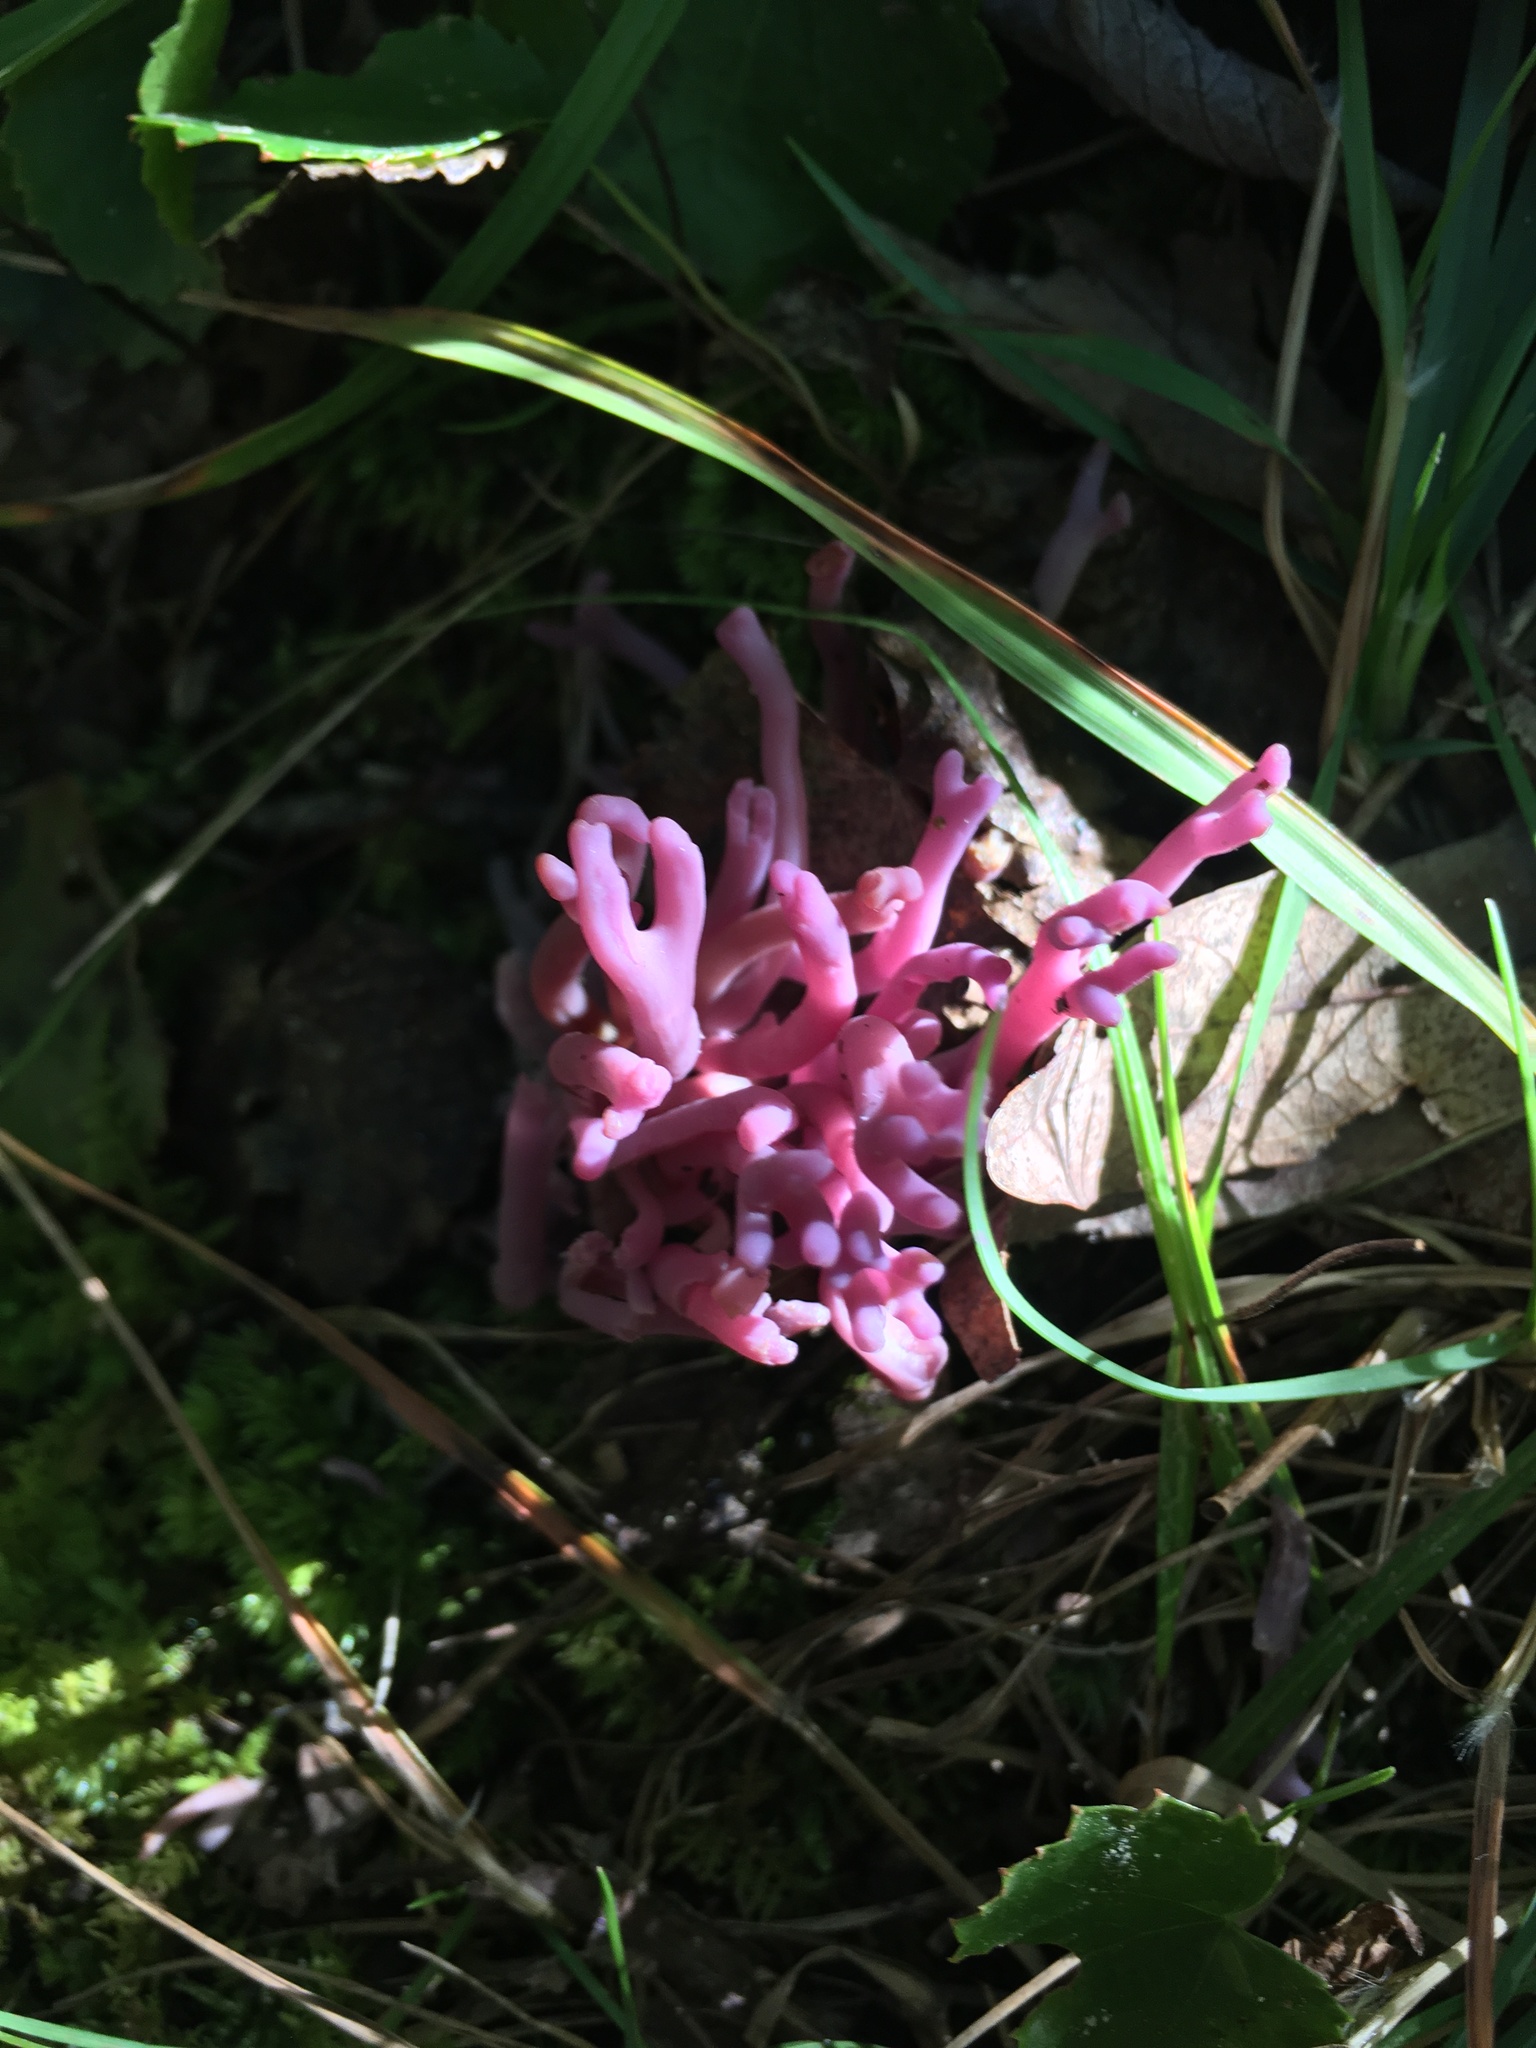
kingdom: Fungi
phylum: Basidiomycota
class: Agaricomycetes
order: Agaricales
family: Clavariaceae
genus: Clavaria
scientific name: Clavaria zollingeri
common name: Violet coral
